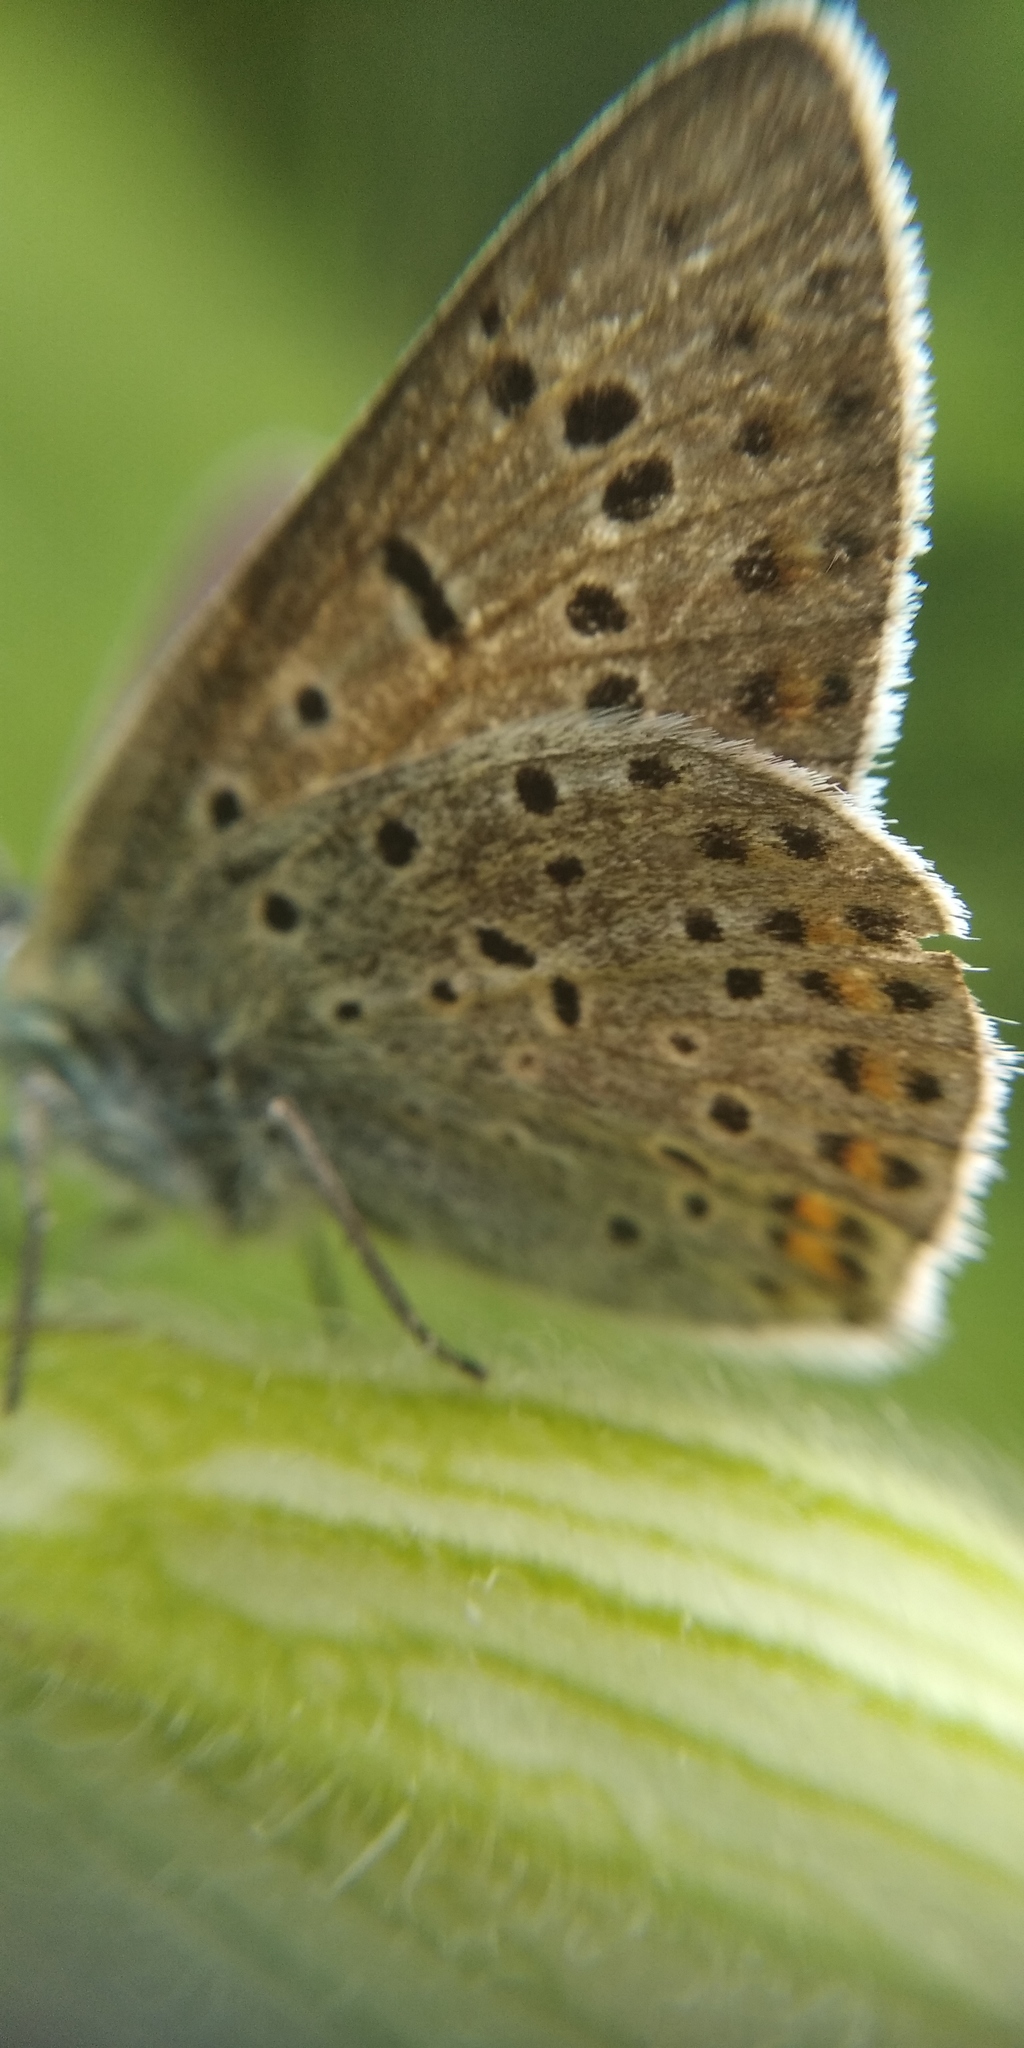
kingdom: Animalia
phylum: Arthropoda
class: Insecta
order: Lepidoptera
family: Lycaenidae
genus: Loweia
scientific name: Loweia tityrus
